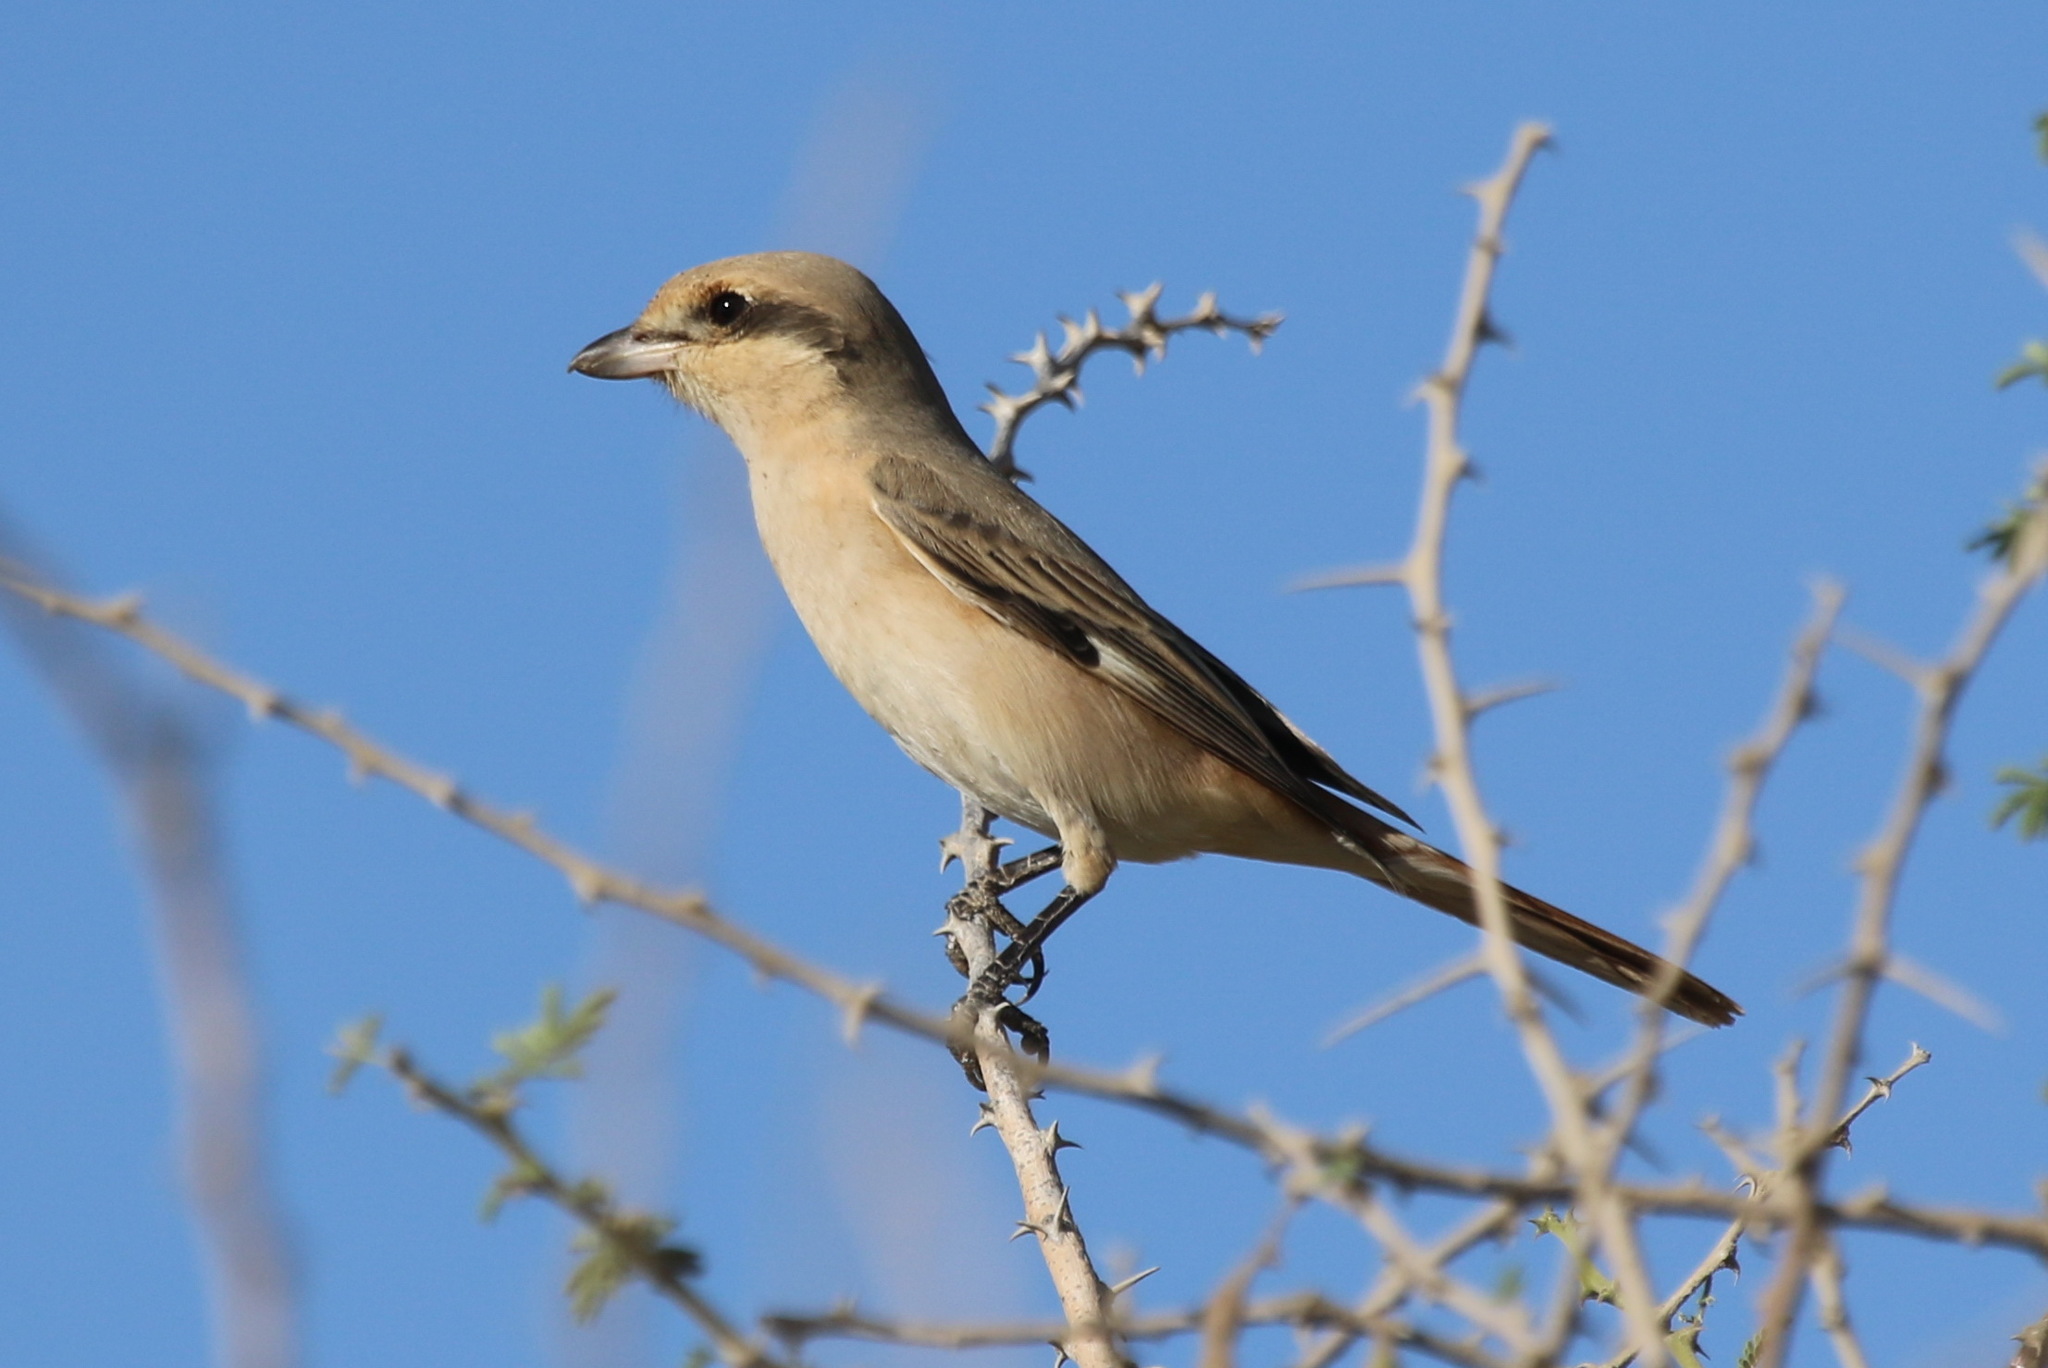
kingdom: Animalia
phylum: Chordata
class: Aves
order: Passeriformes
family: Laniidae
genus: Lanius
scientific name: Lanius isabellinus
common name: Isabelline shrike
